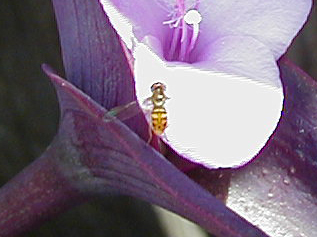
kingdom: Animalia
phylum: Arthropoda
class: Insecta
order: Diptera
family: Syrphidae
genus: Toxomerus
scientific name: Toxomerus marginatus
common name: Syrphid fly
